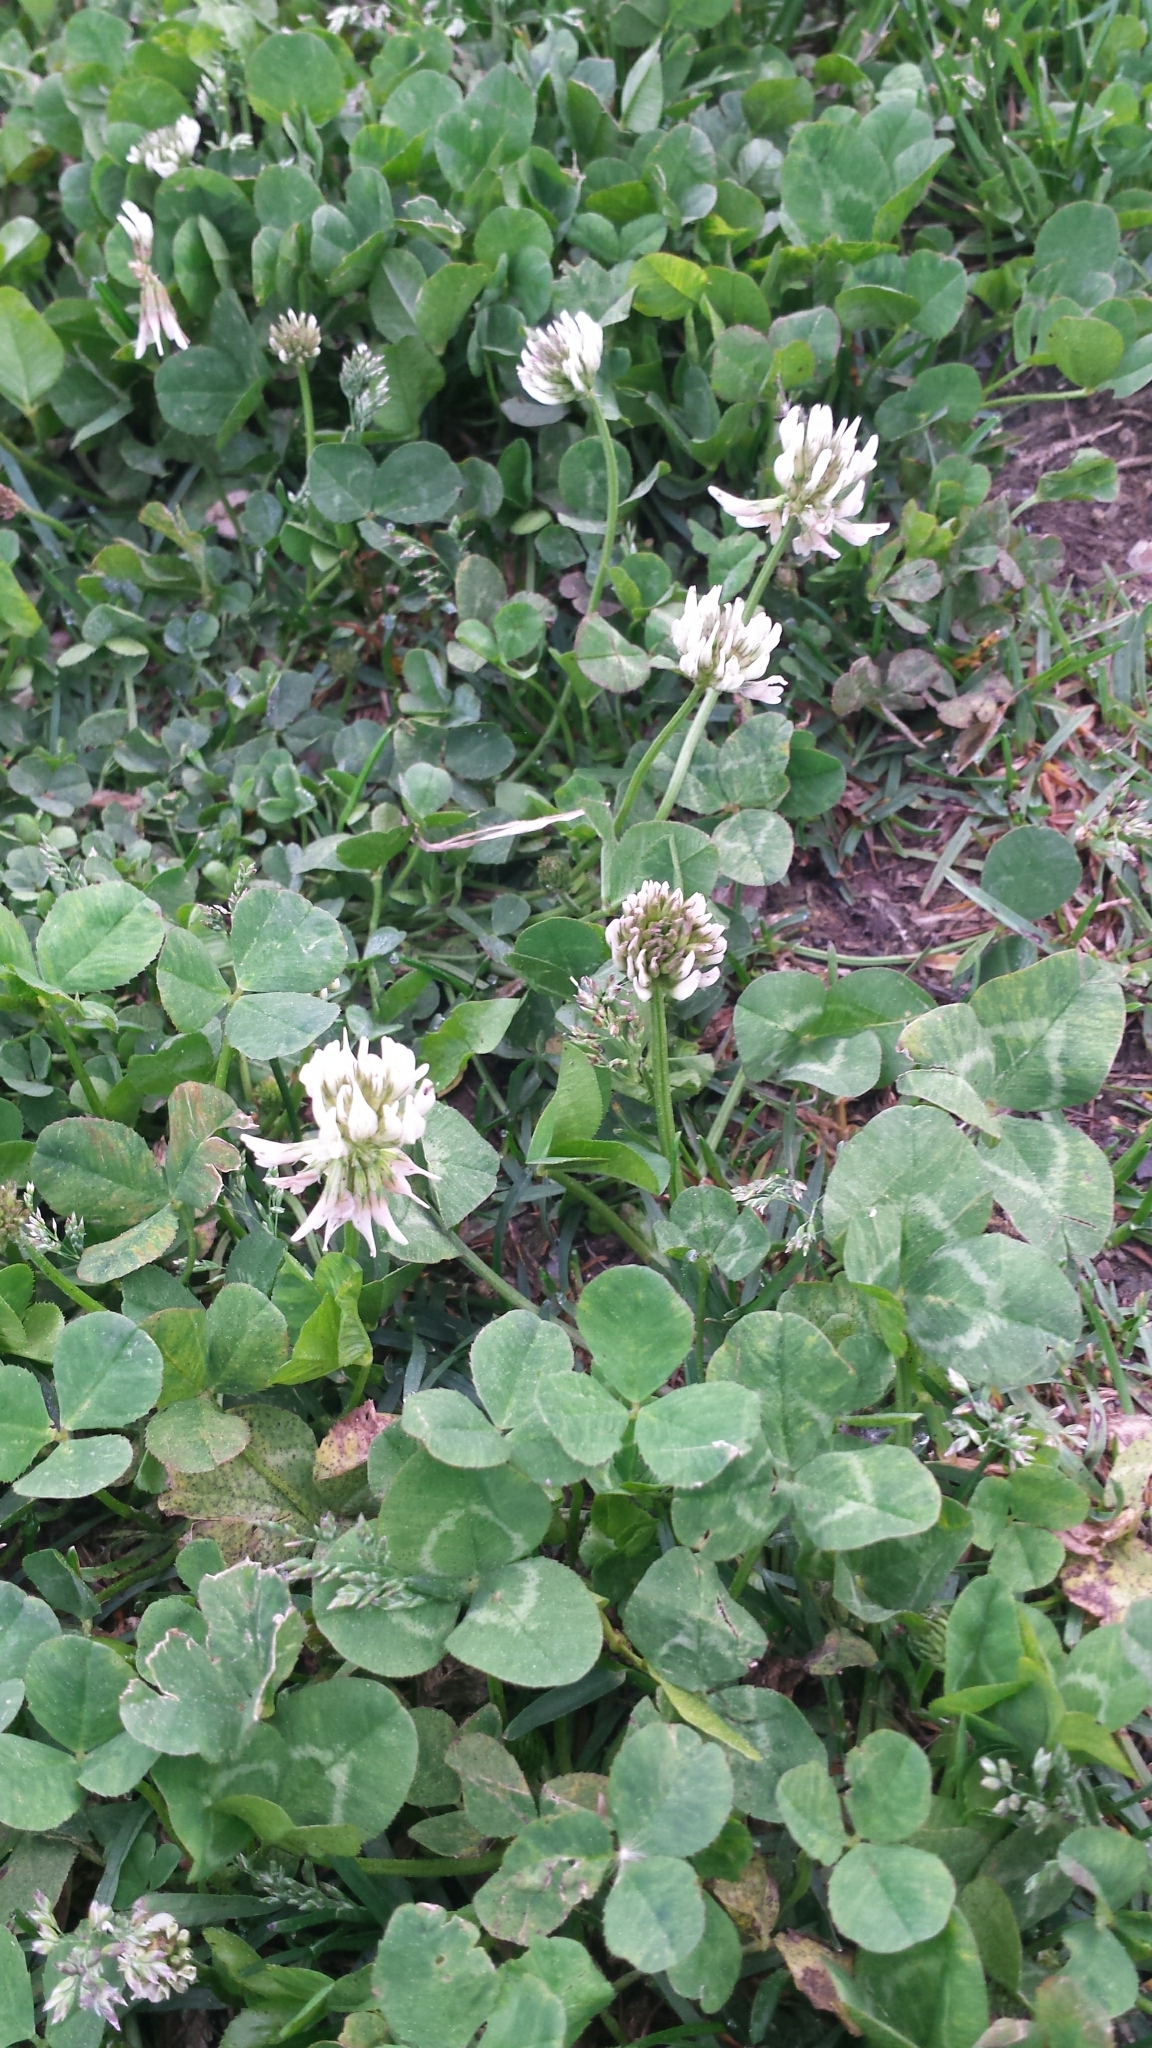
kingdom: Plantae
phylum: Tracheophyta
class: Magnoliopsida
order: Fabales
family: Fabaceae
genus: Trifolium
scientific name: Trifolium repens
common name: White clover
